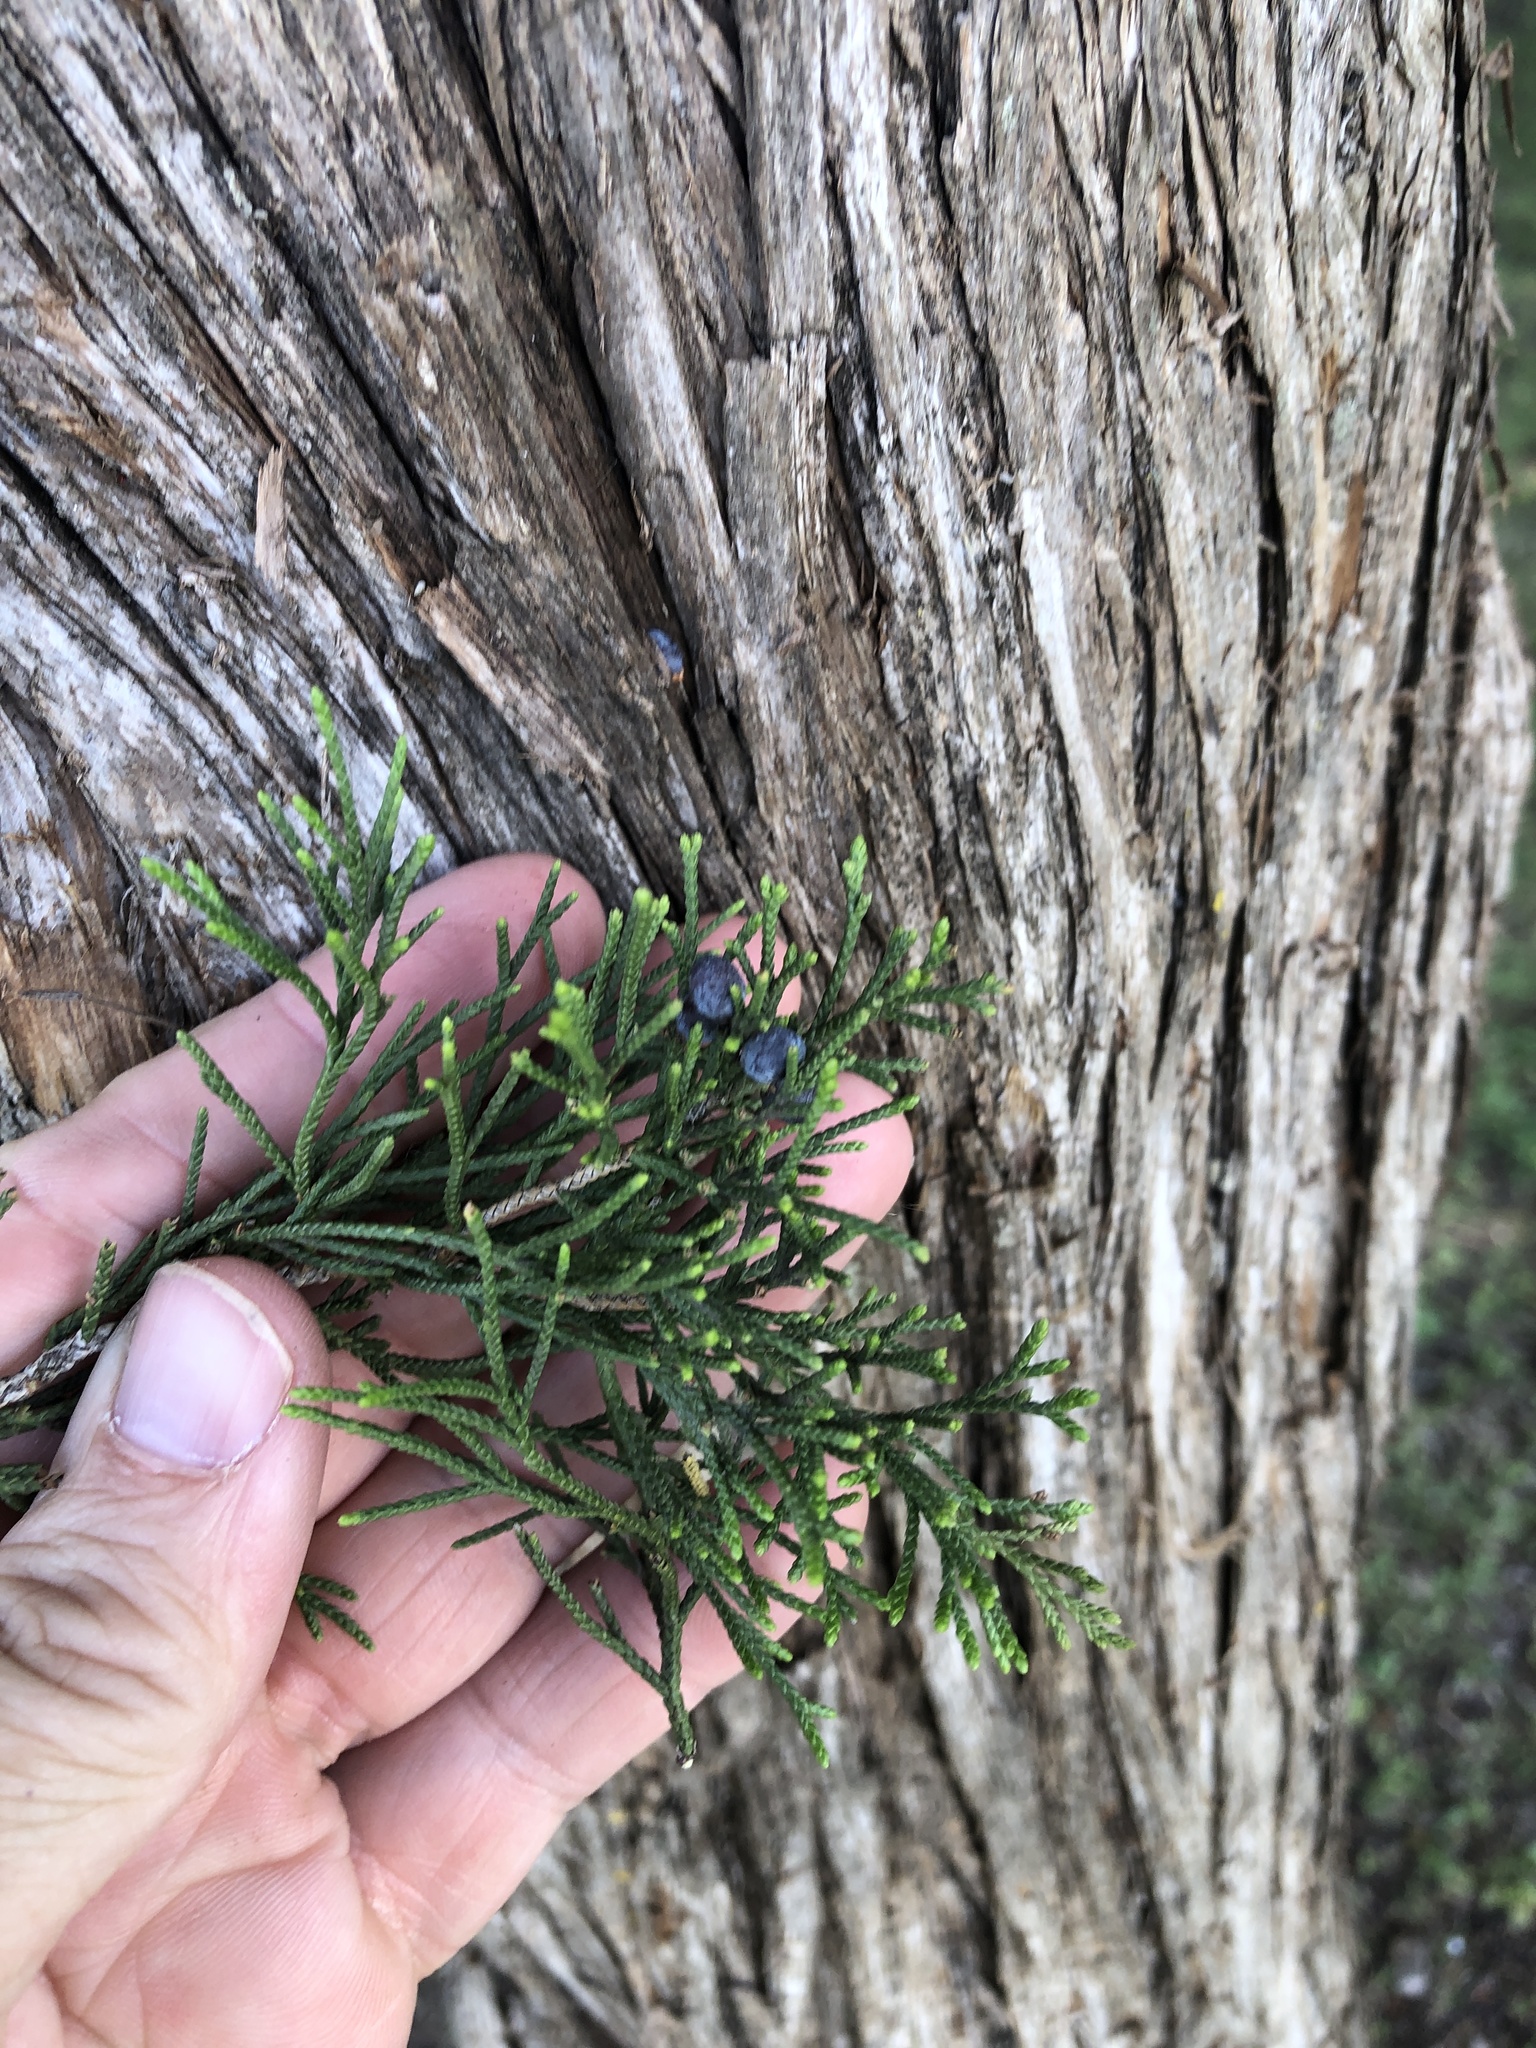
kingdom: Plantae
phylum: Tracheophyta
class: Pinopsida
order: Pinales
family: Cupressaceae
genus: Juniperus
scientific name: Juniperus virginiana
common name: Red juniper
